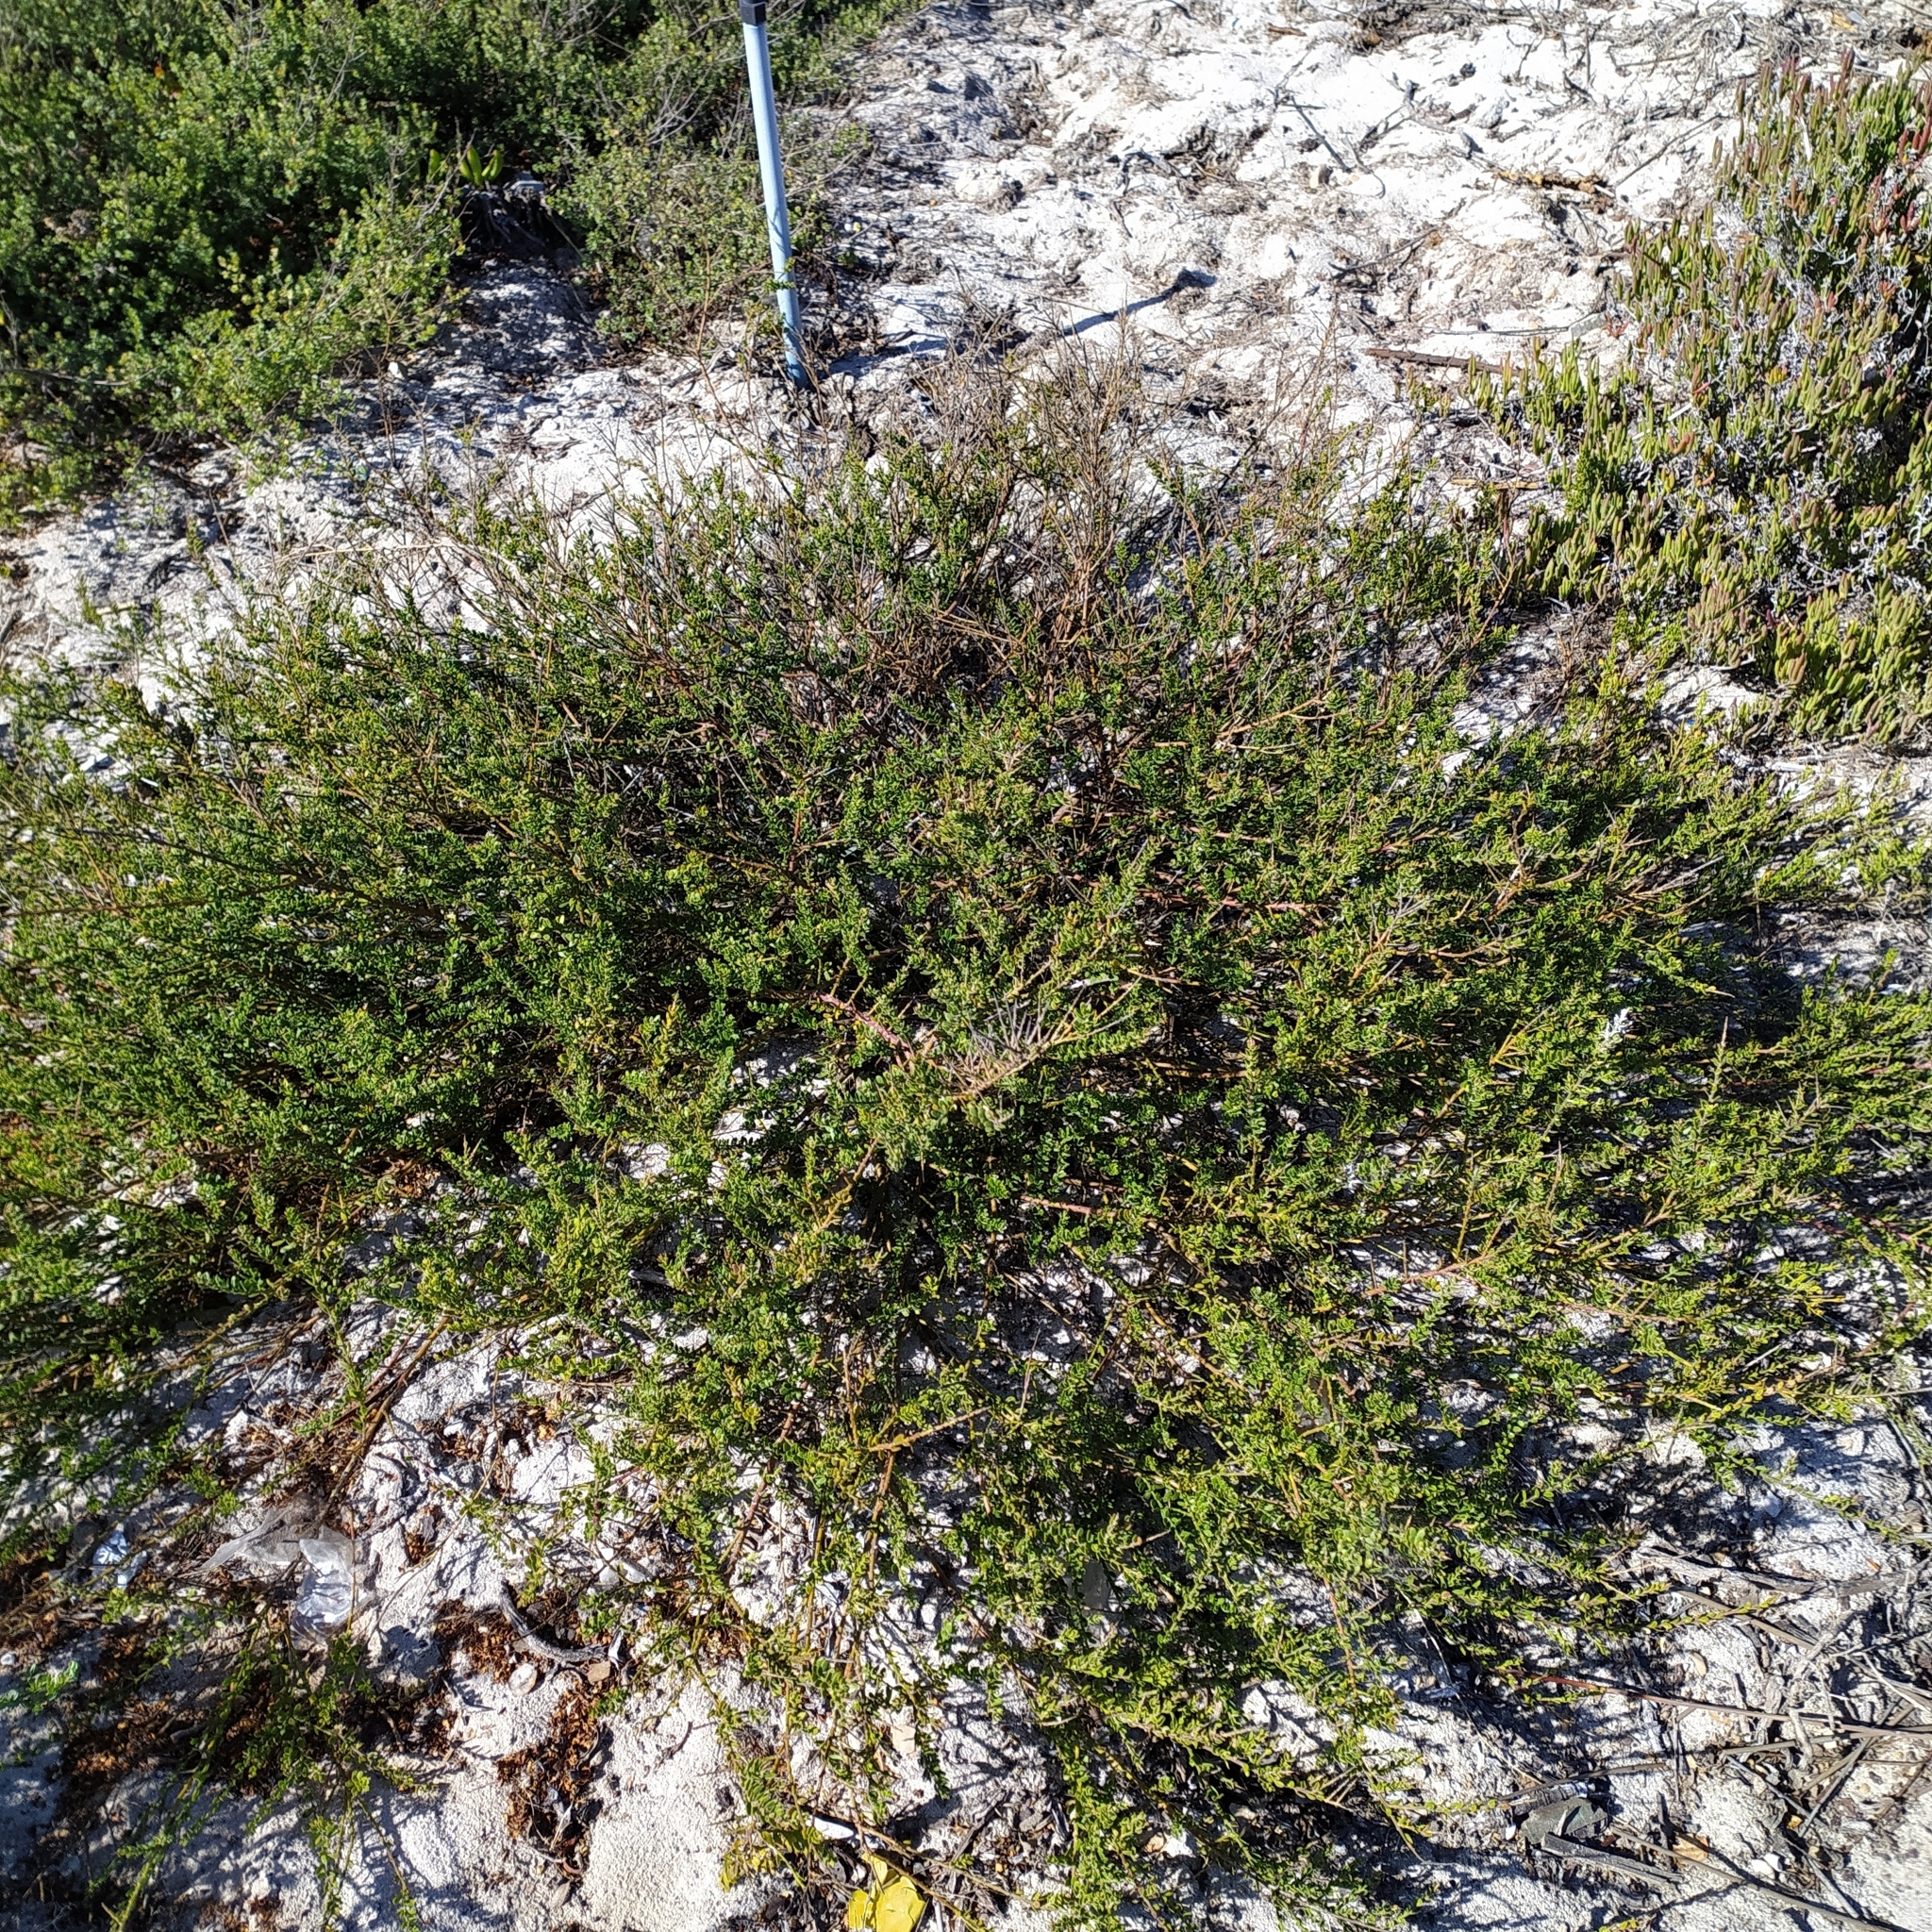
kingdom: Plantae
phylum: Tracheophyta
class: Magnoliopsida
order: Fabales
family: Polygalaceae
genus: Muraltia
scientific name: Muraltia spinosa
